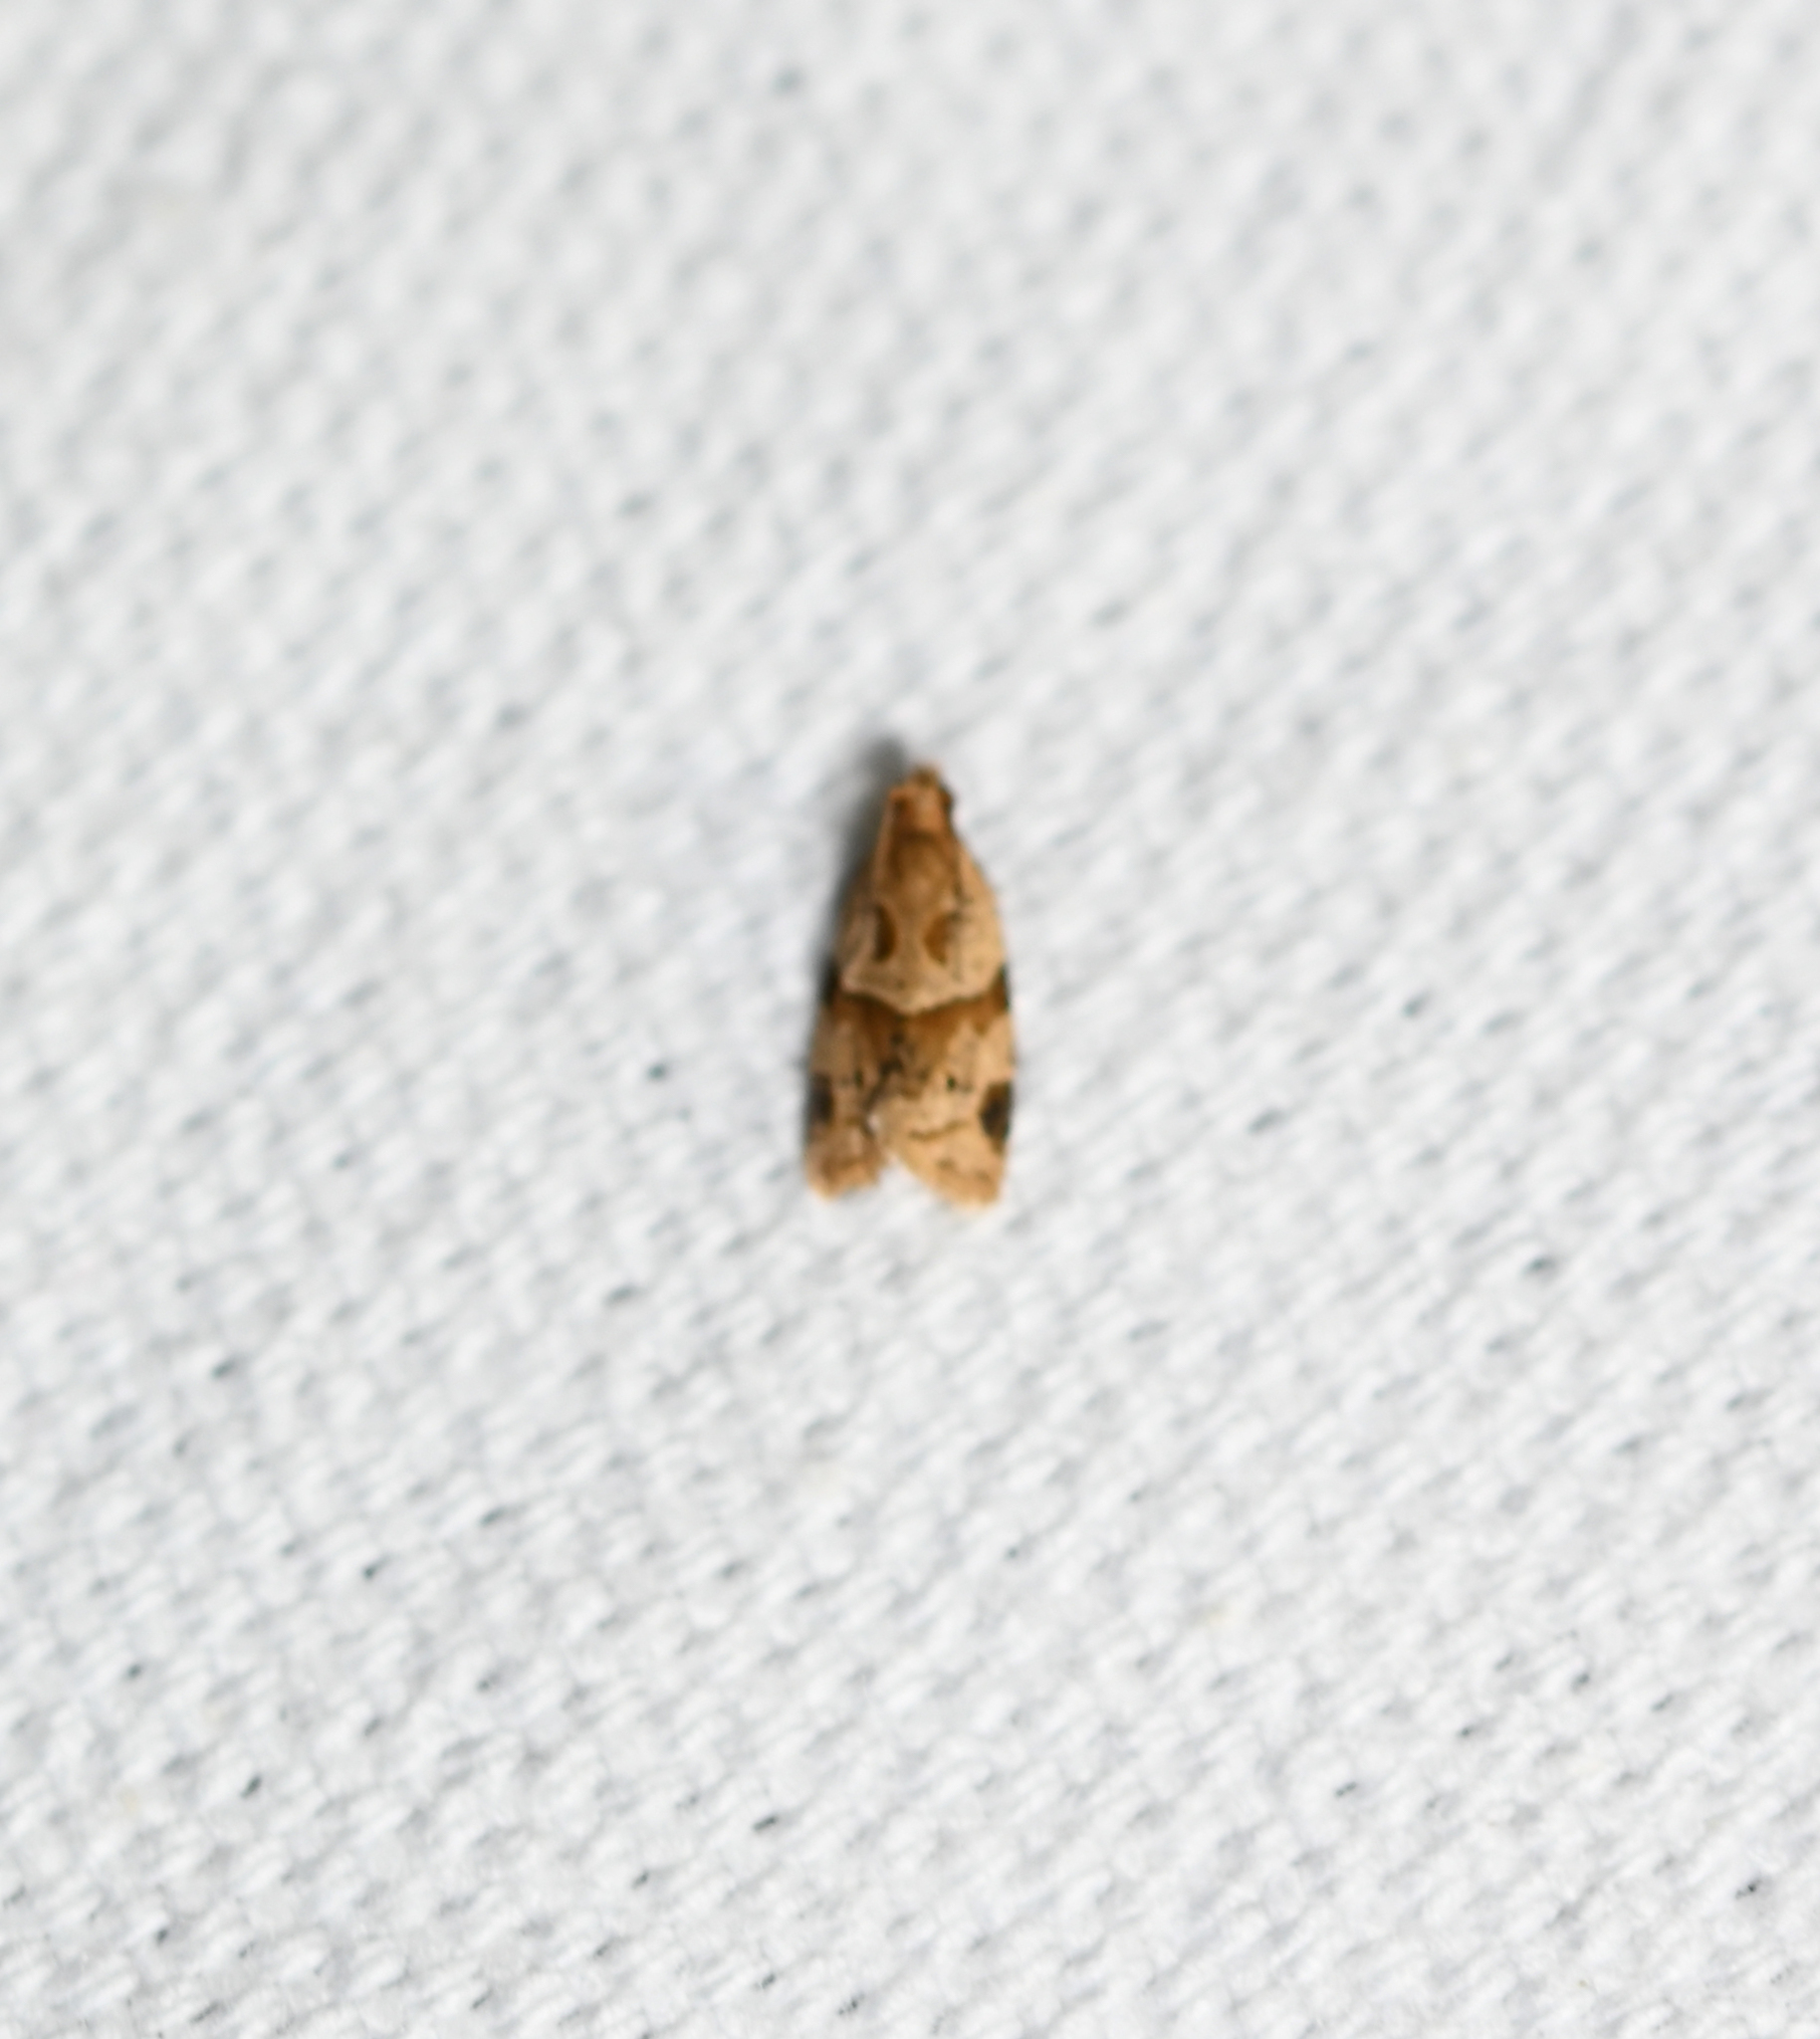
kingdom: Animalia
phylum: Arthropoda
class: Insecta
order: Lepidoptera
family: Tortricidae
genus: Clepsis
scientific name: Clepsis peritana
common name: Garden tortrix
